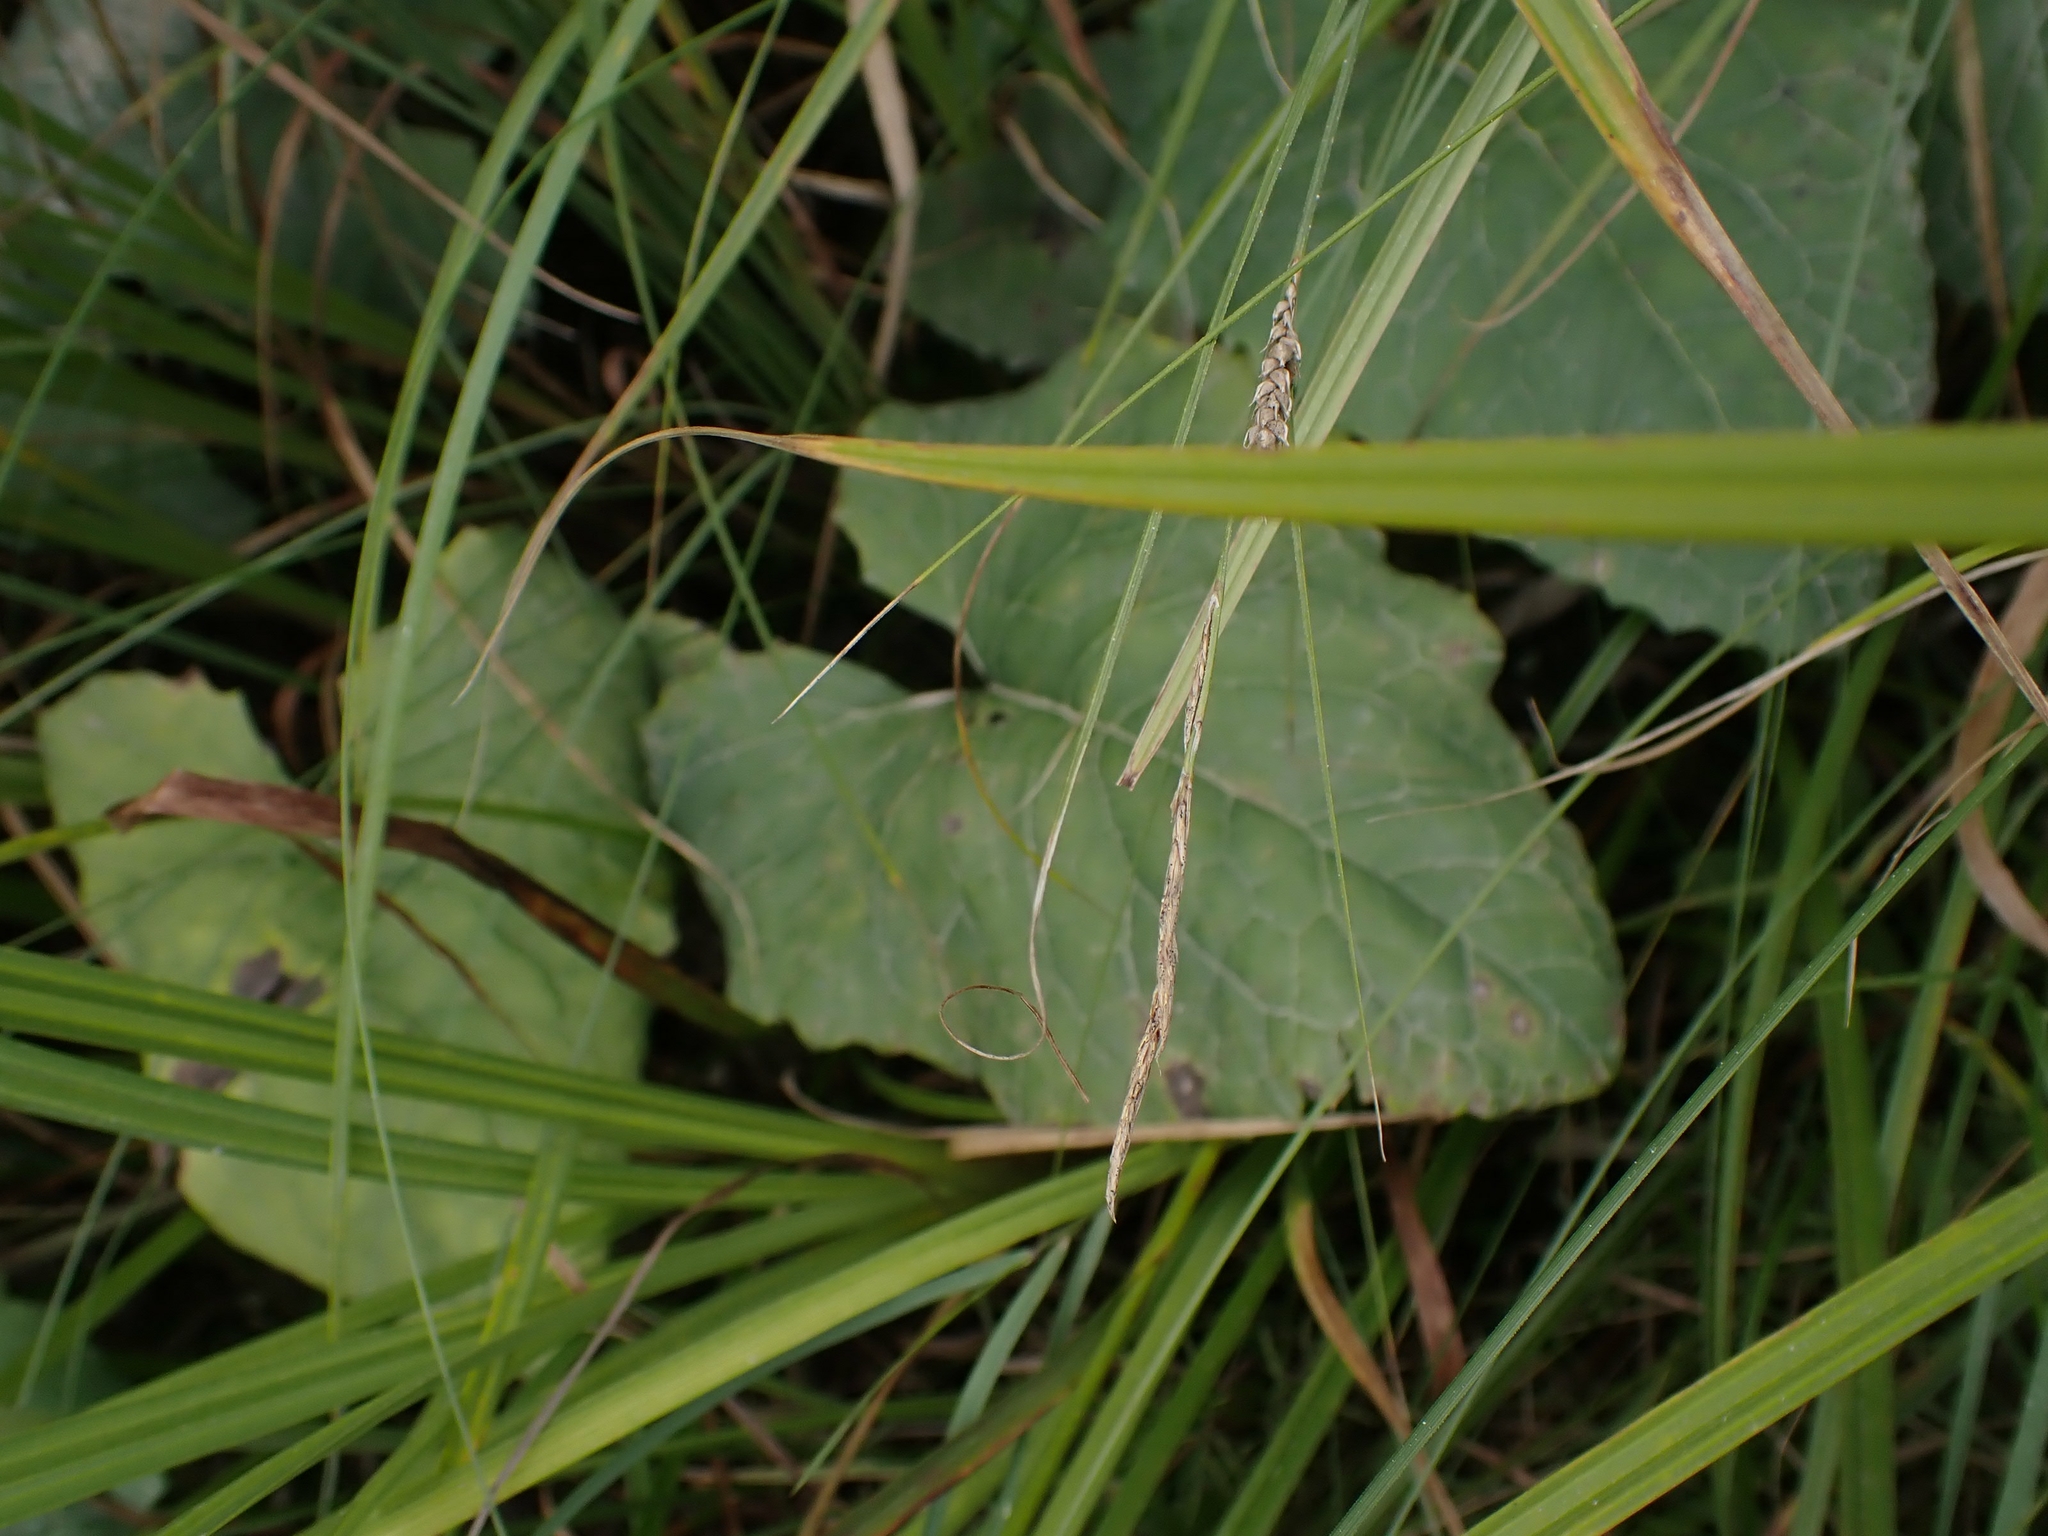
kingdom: Plantae
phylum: Tracheophyta
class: Magnoliopsida
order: Asterales
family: Asteraceae
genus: Petasites
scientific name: Petasites frigidus
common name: Arctic butterbur
